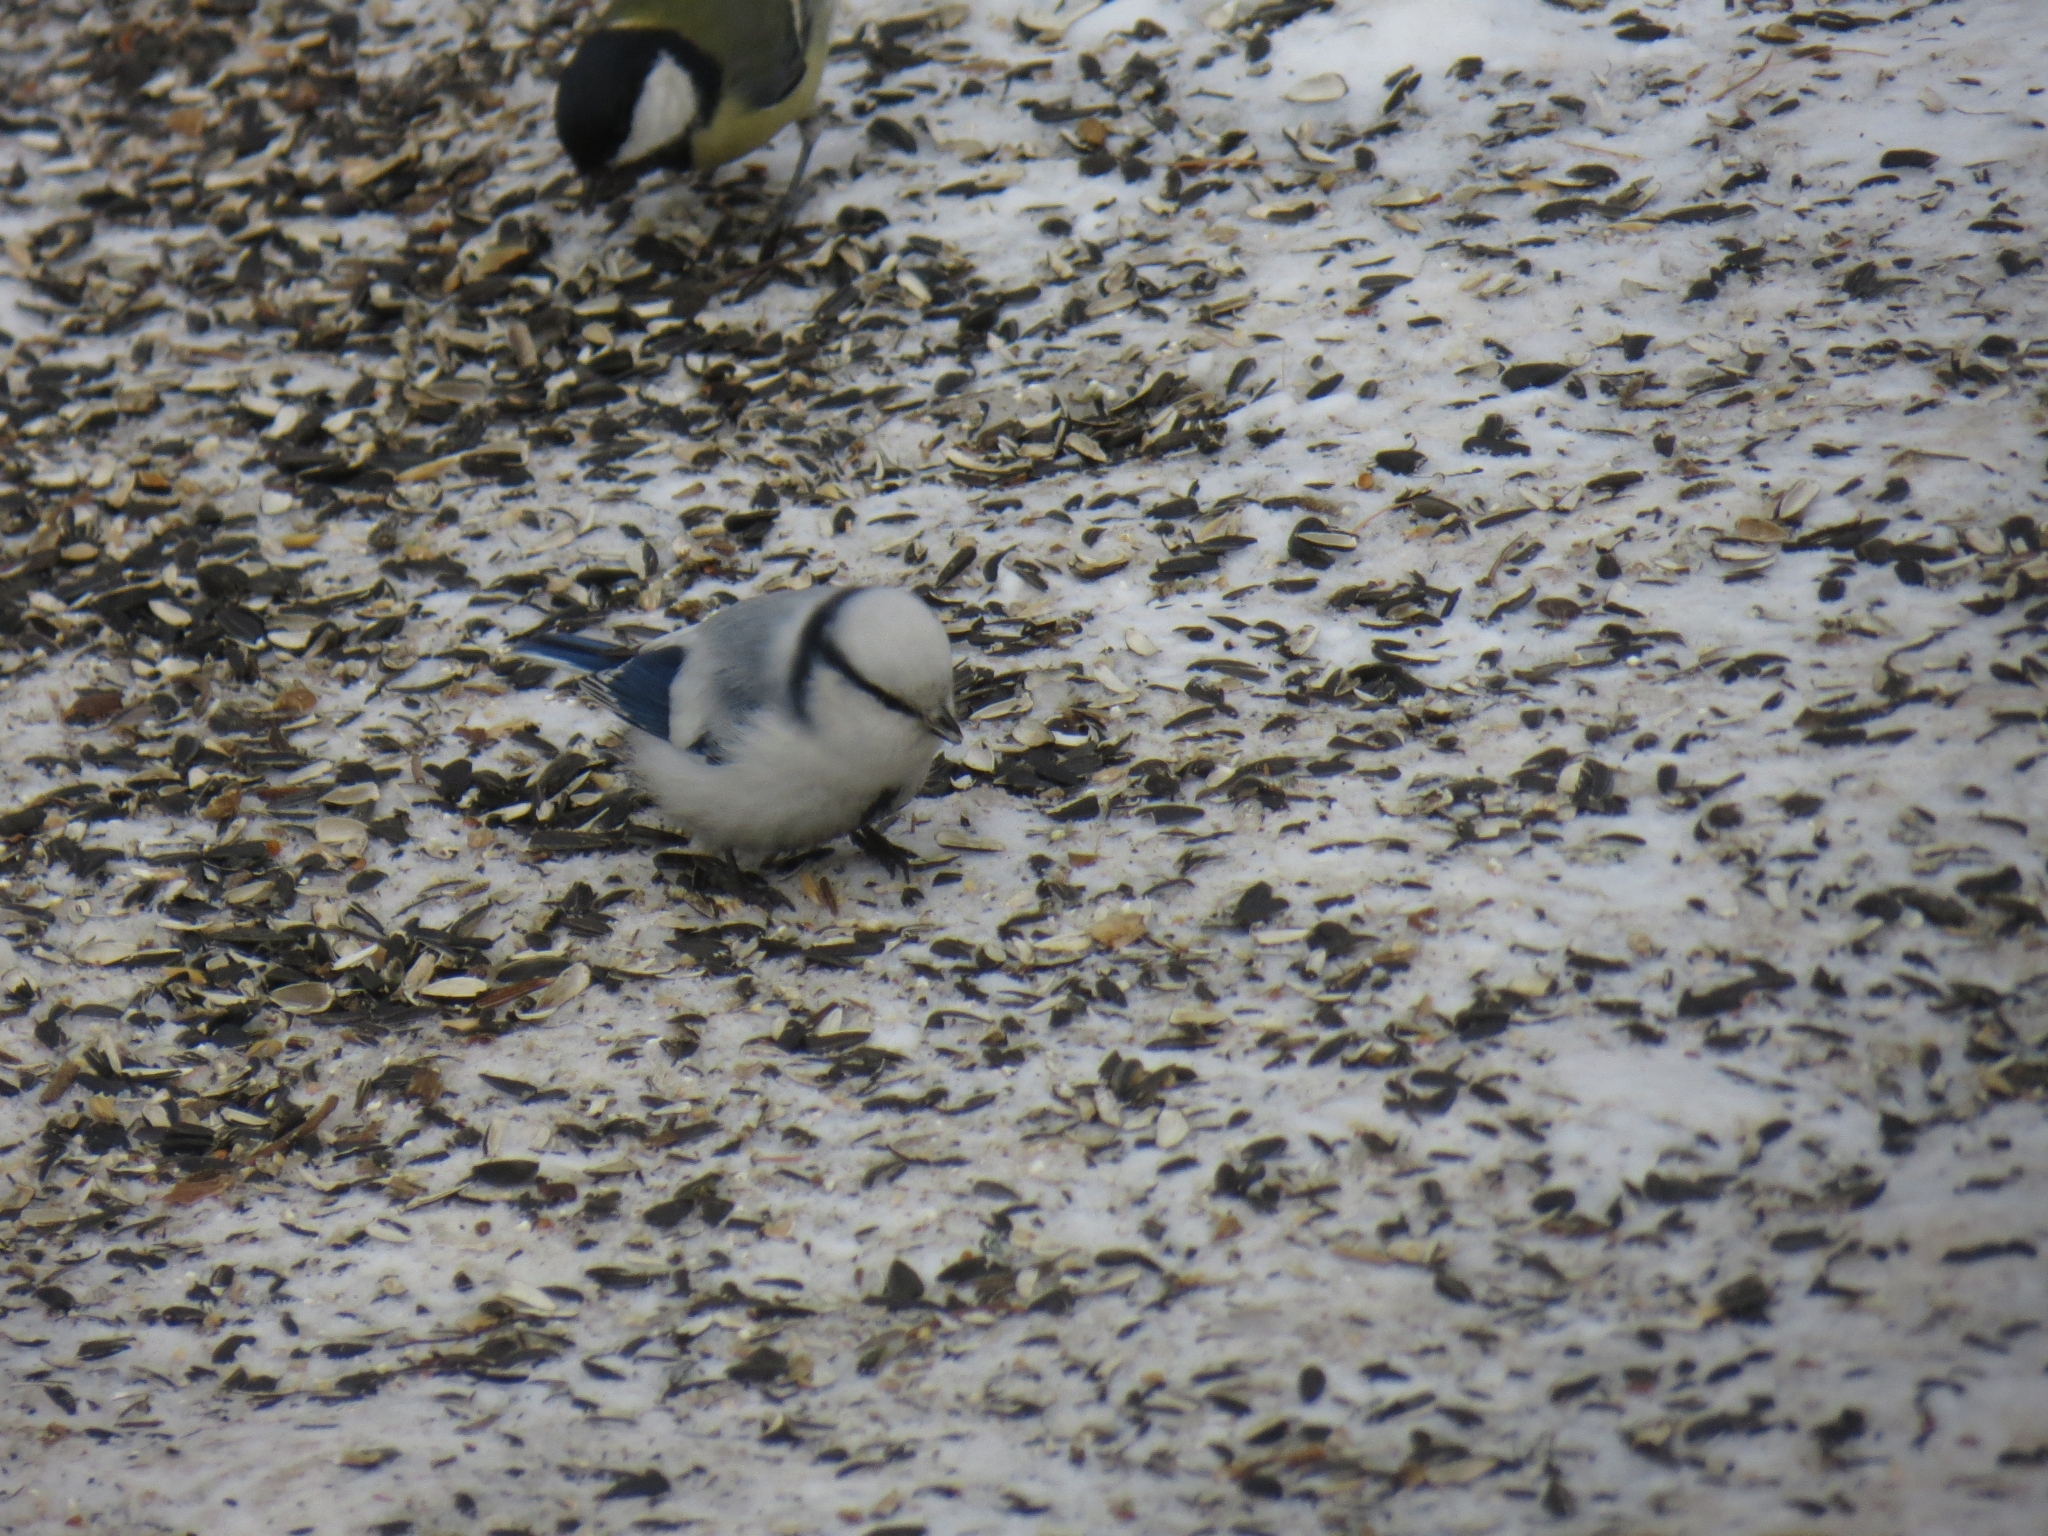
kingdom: Animalia
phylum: Chordata
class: Aves
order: Passeriformes
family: Paridae
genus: Cyanistes
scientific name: Cyanistes cyanus
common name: Azure tit
